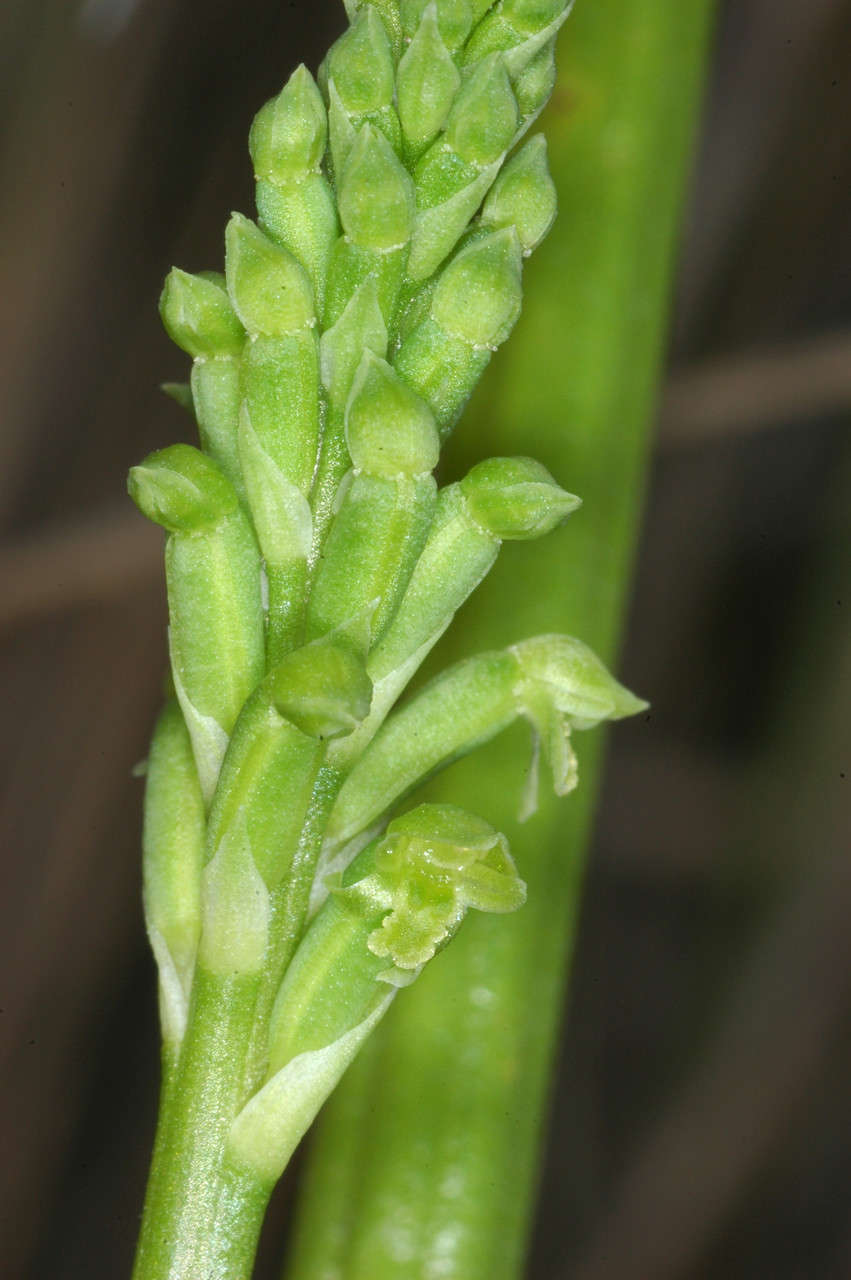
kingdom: Plantae
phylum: Tracheophyta
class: Liliopsida
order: Asparagales
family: Orchidaceae
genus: Microtis
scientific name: Microtis unifolia
